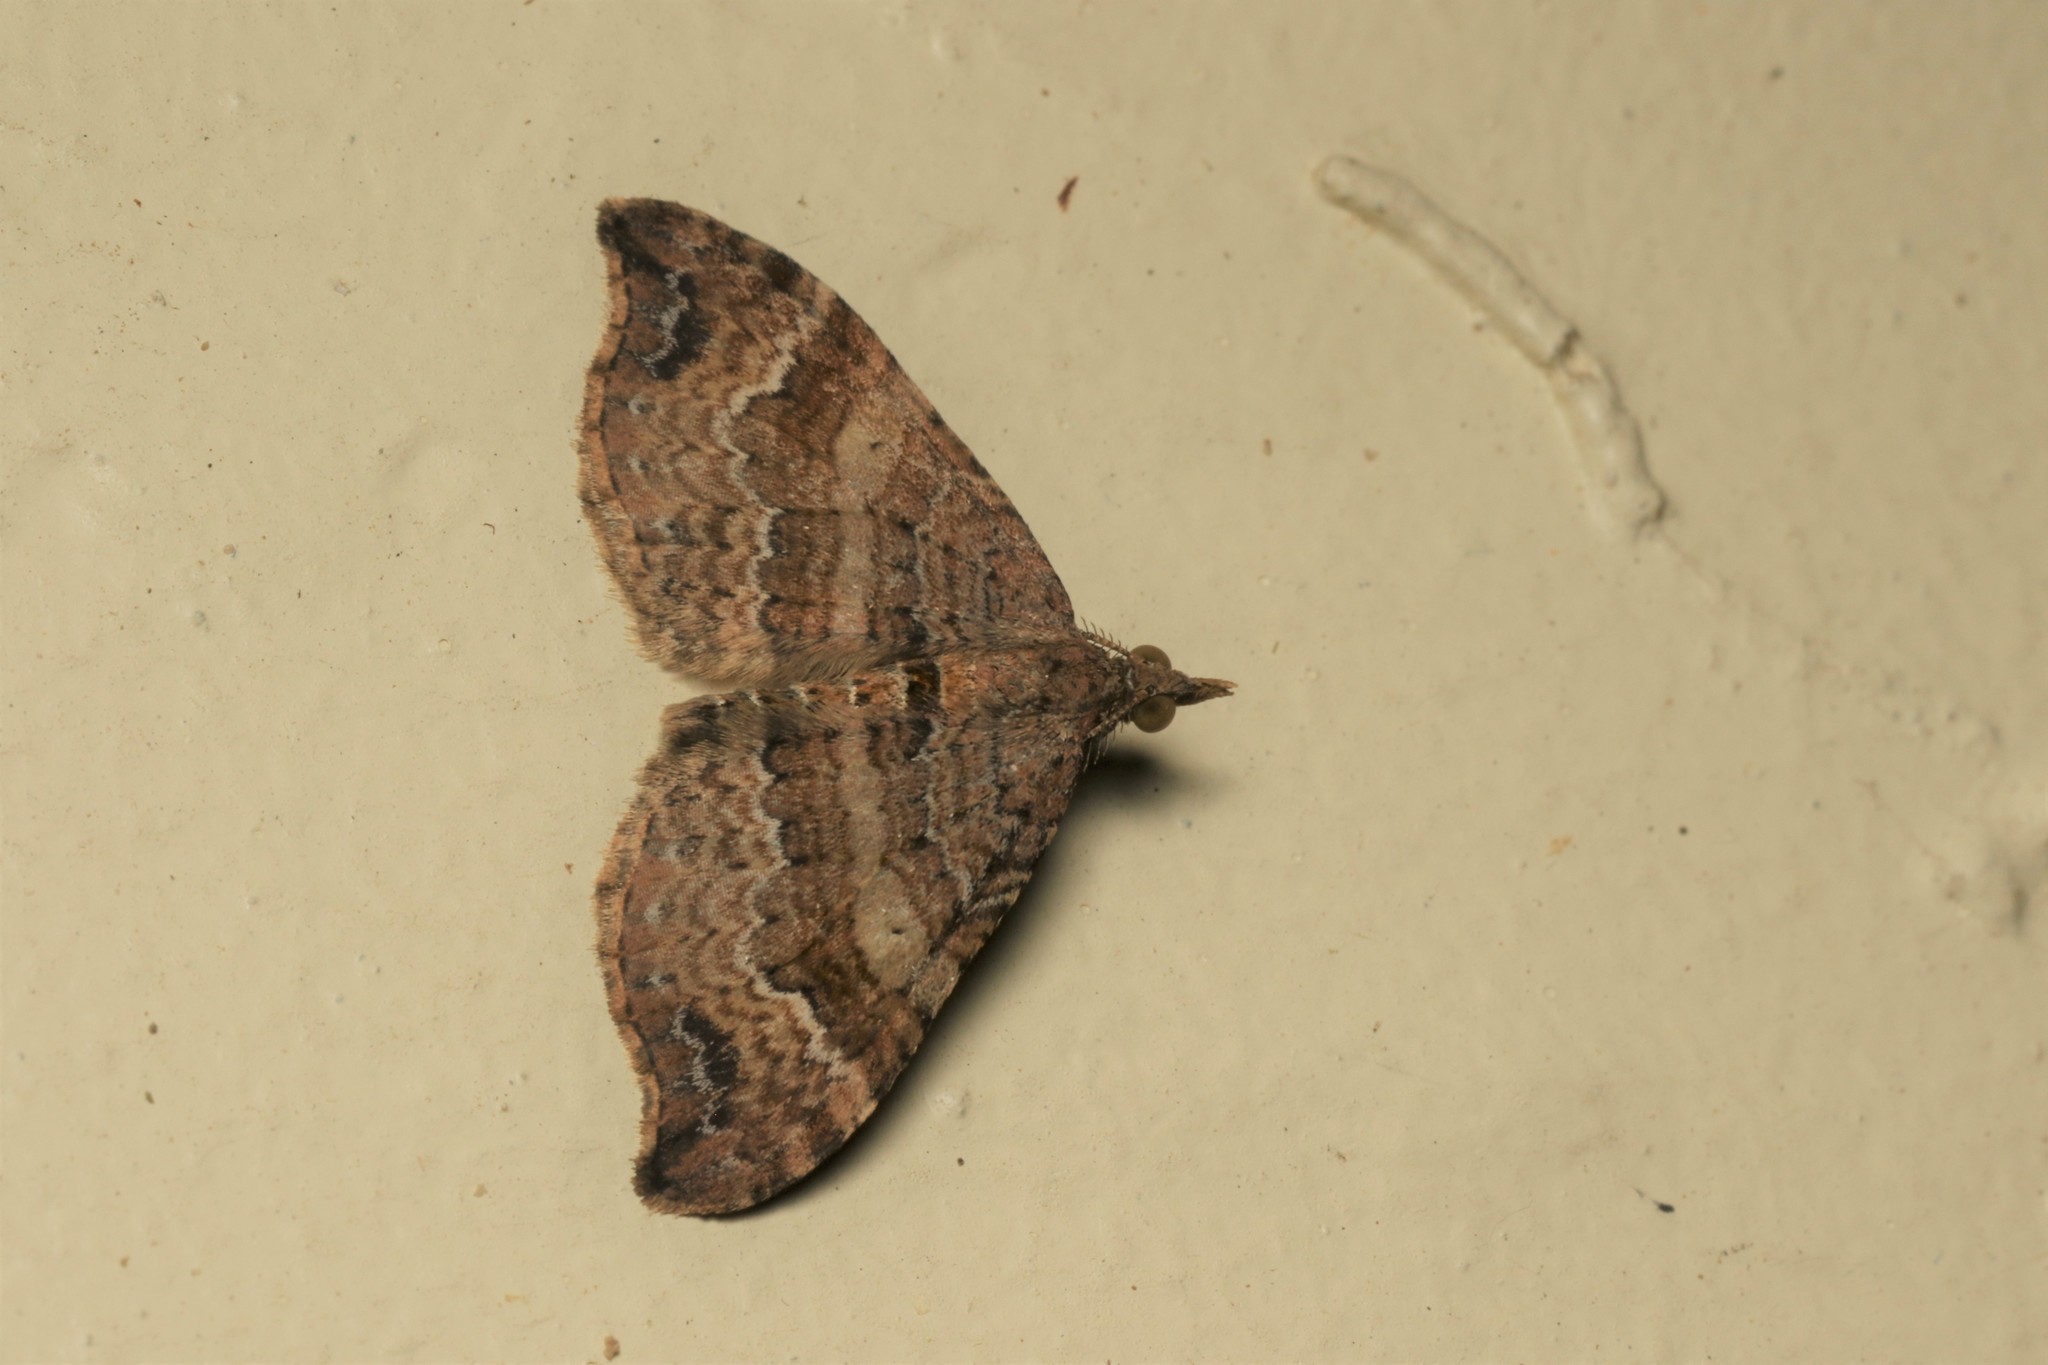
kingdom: Animalia
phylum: Arthropoda
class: Insecta
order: Lepidoptera
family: Geometridae
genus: Homodotis
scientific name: Homodotis megaspilata
